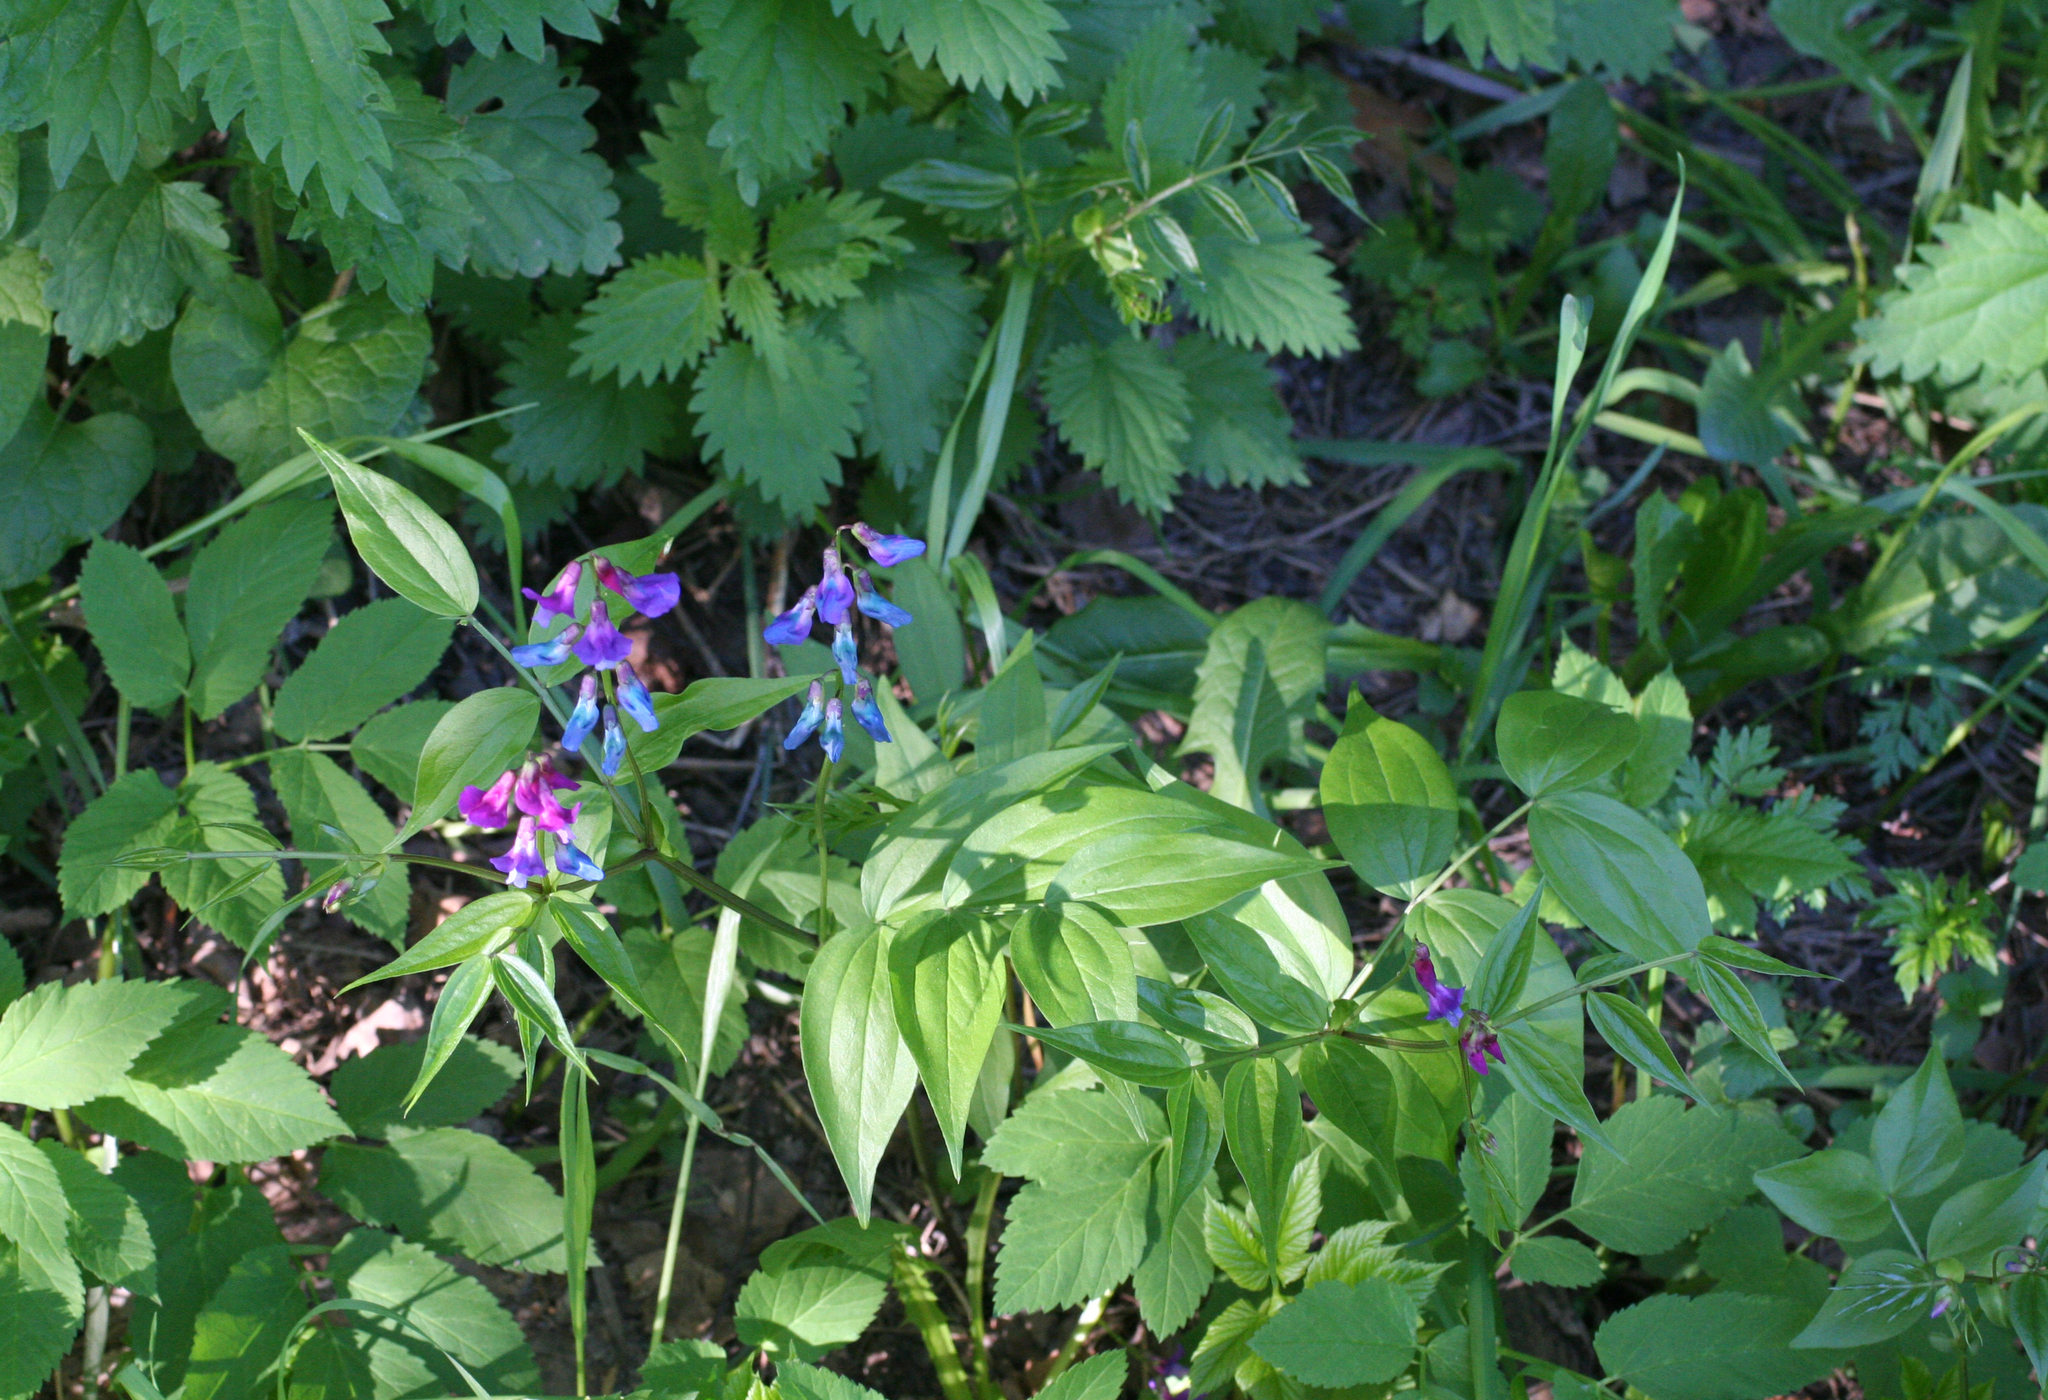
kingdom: Plantae
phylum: Tracheophyta
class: Magnoliopsida
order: Fabales
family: Fabaceae
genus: Lathyrus
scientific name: Lathyrus vernus
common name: Spring pea
